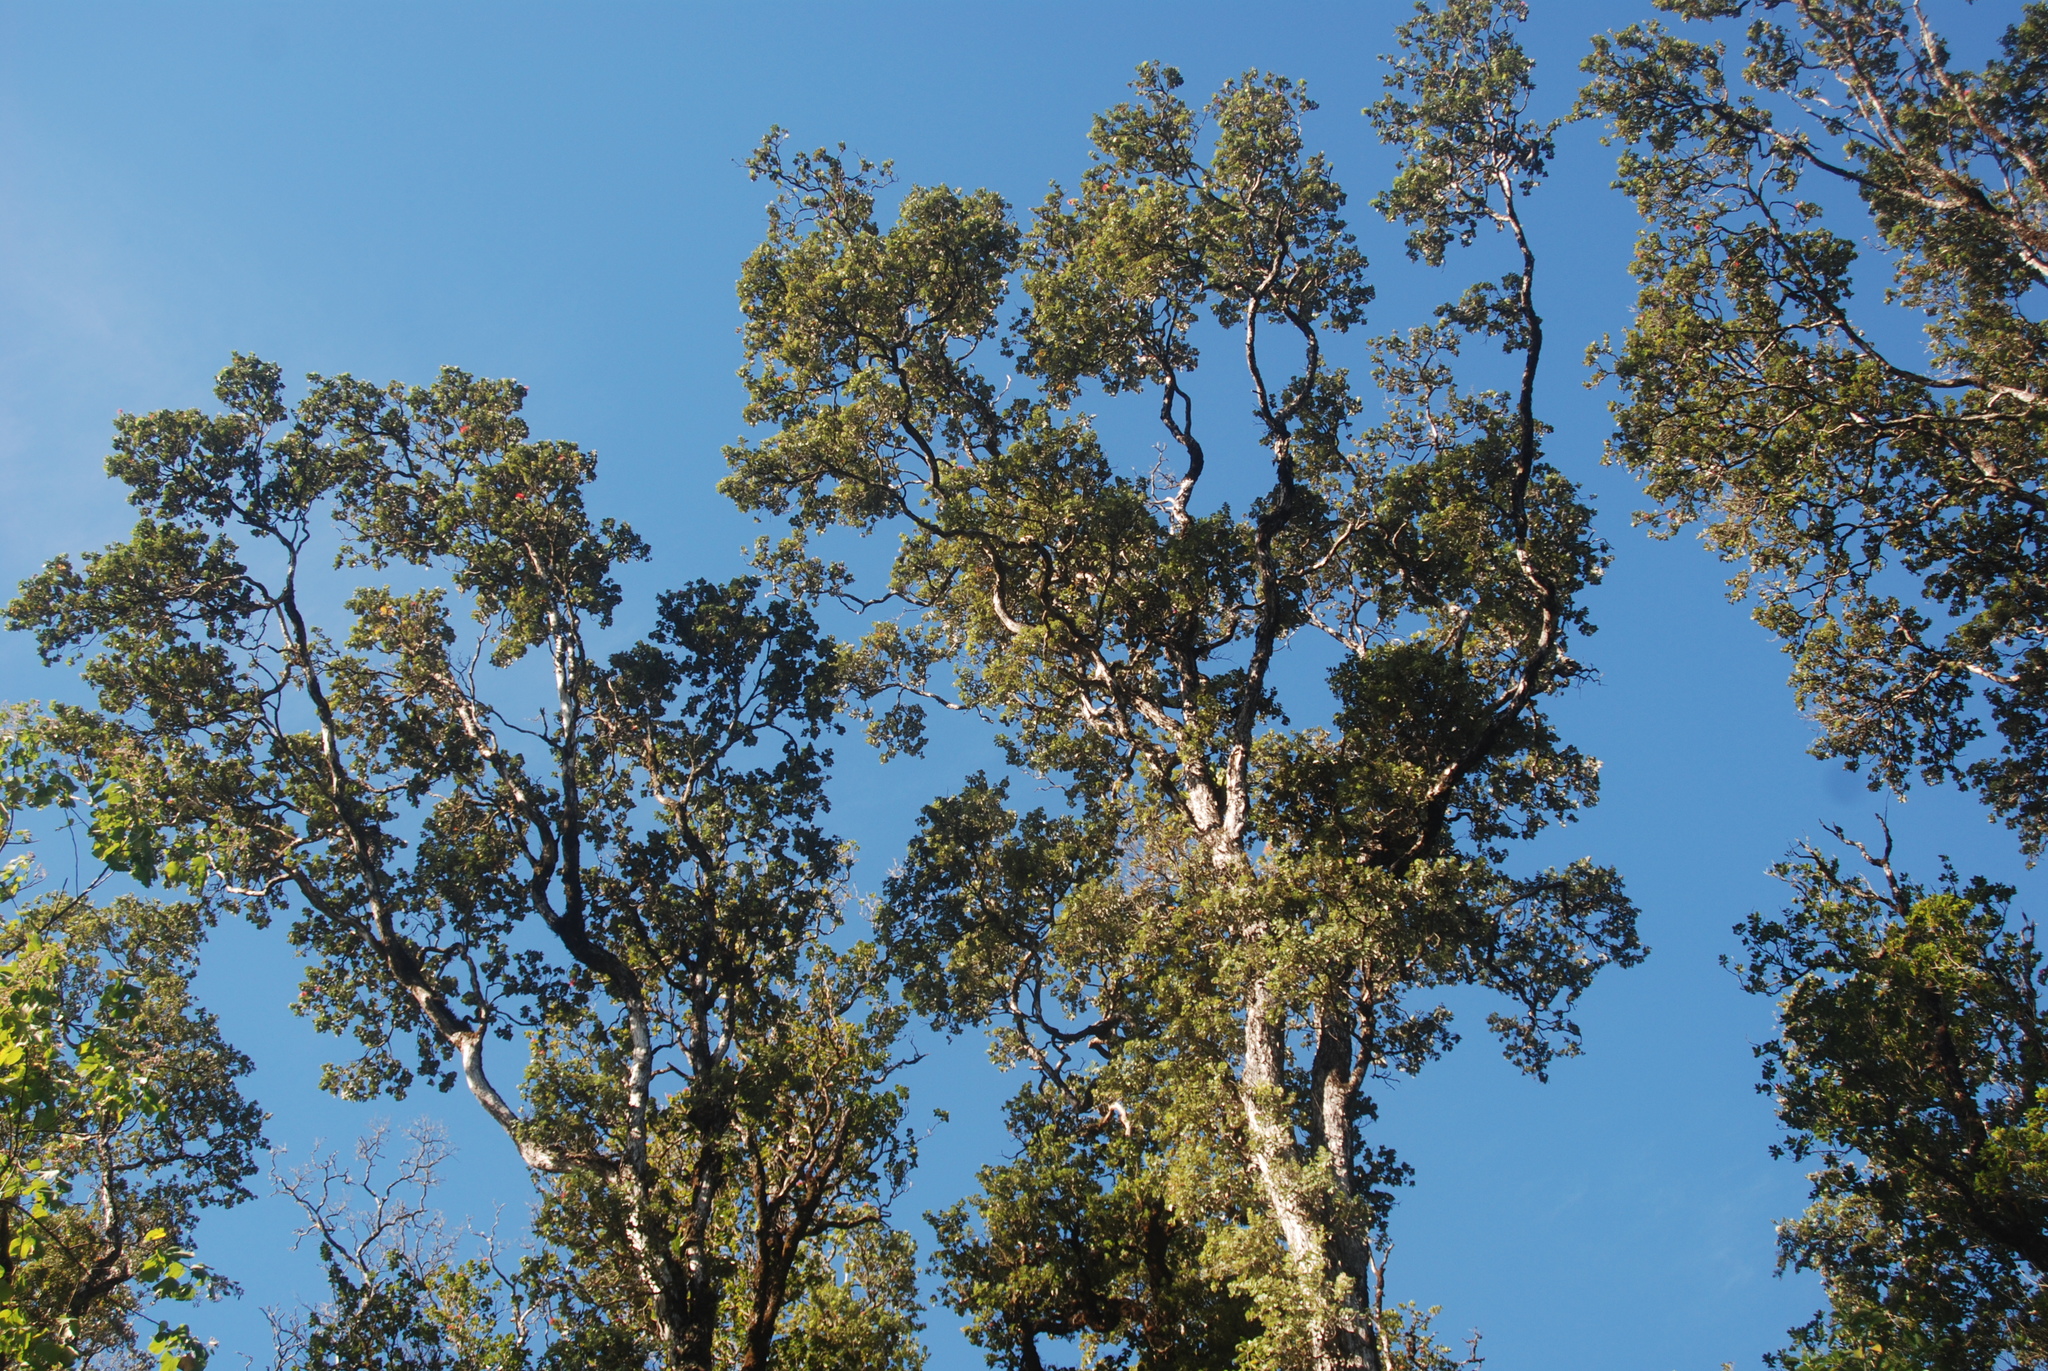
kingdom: Plantae
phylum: Tracheophyta
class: Magnoliopsida
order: Myrtales
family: Myrtaceae
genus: Metrosideros
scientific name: Metrosideros polymorpha
